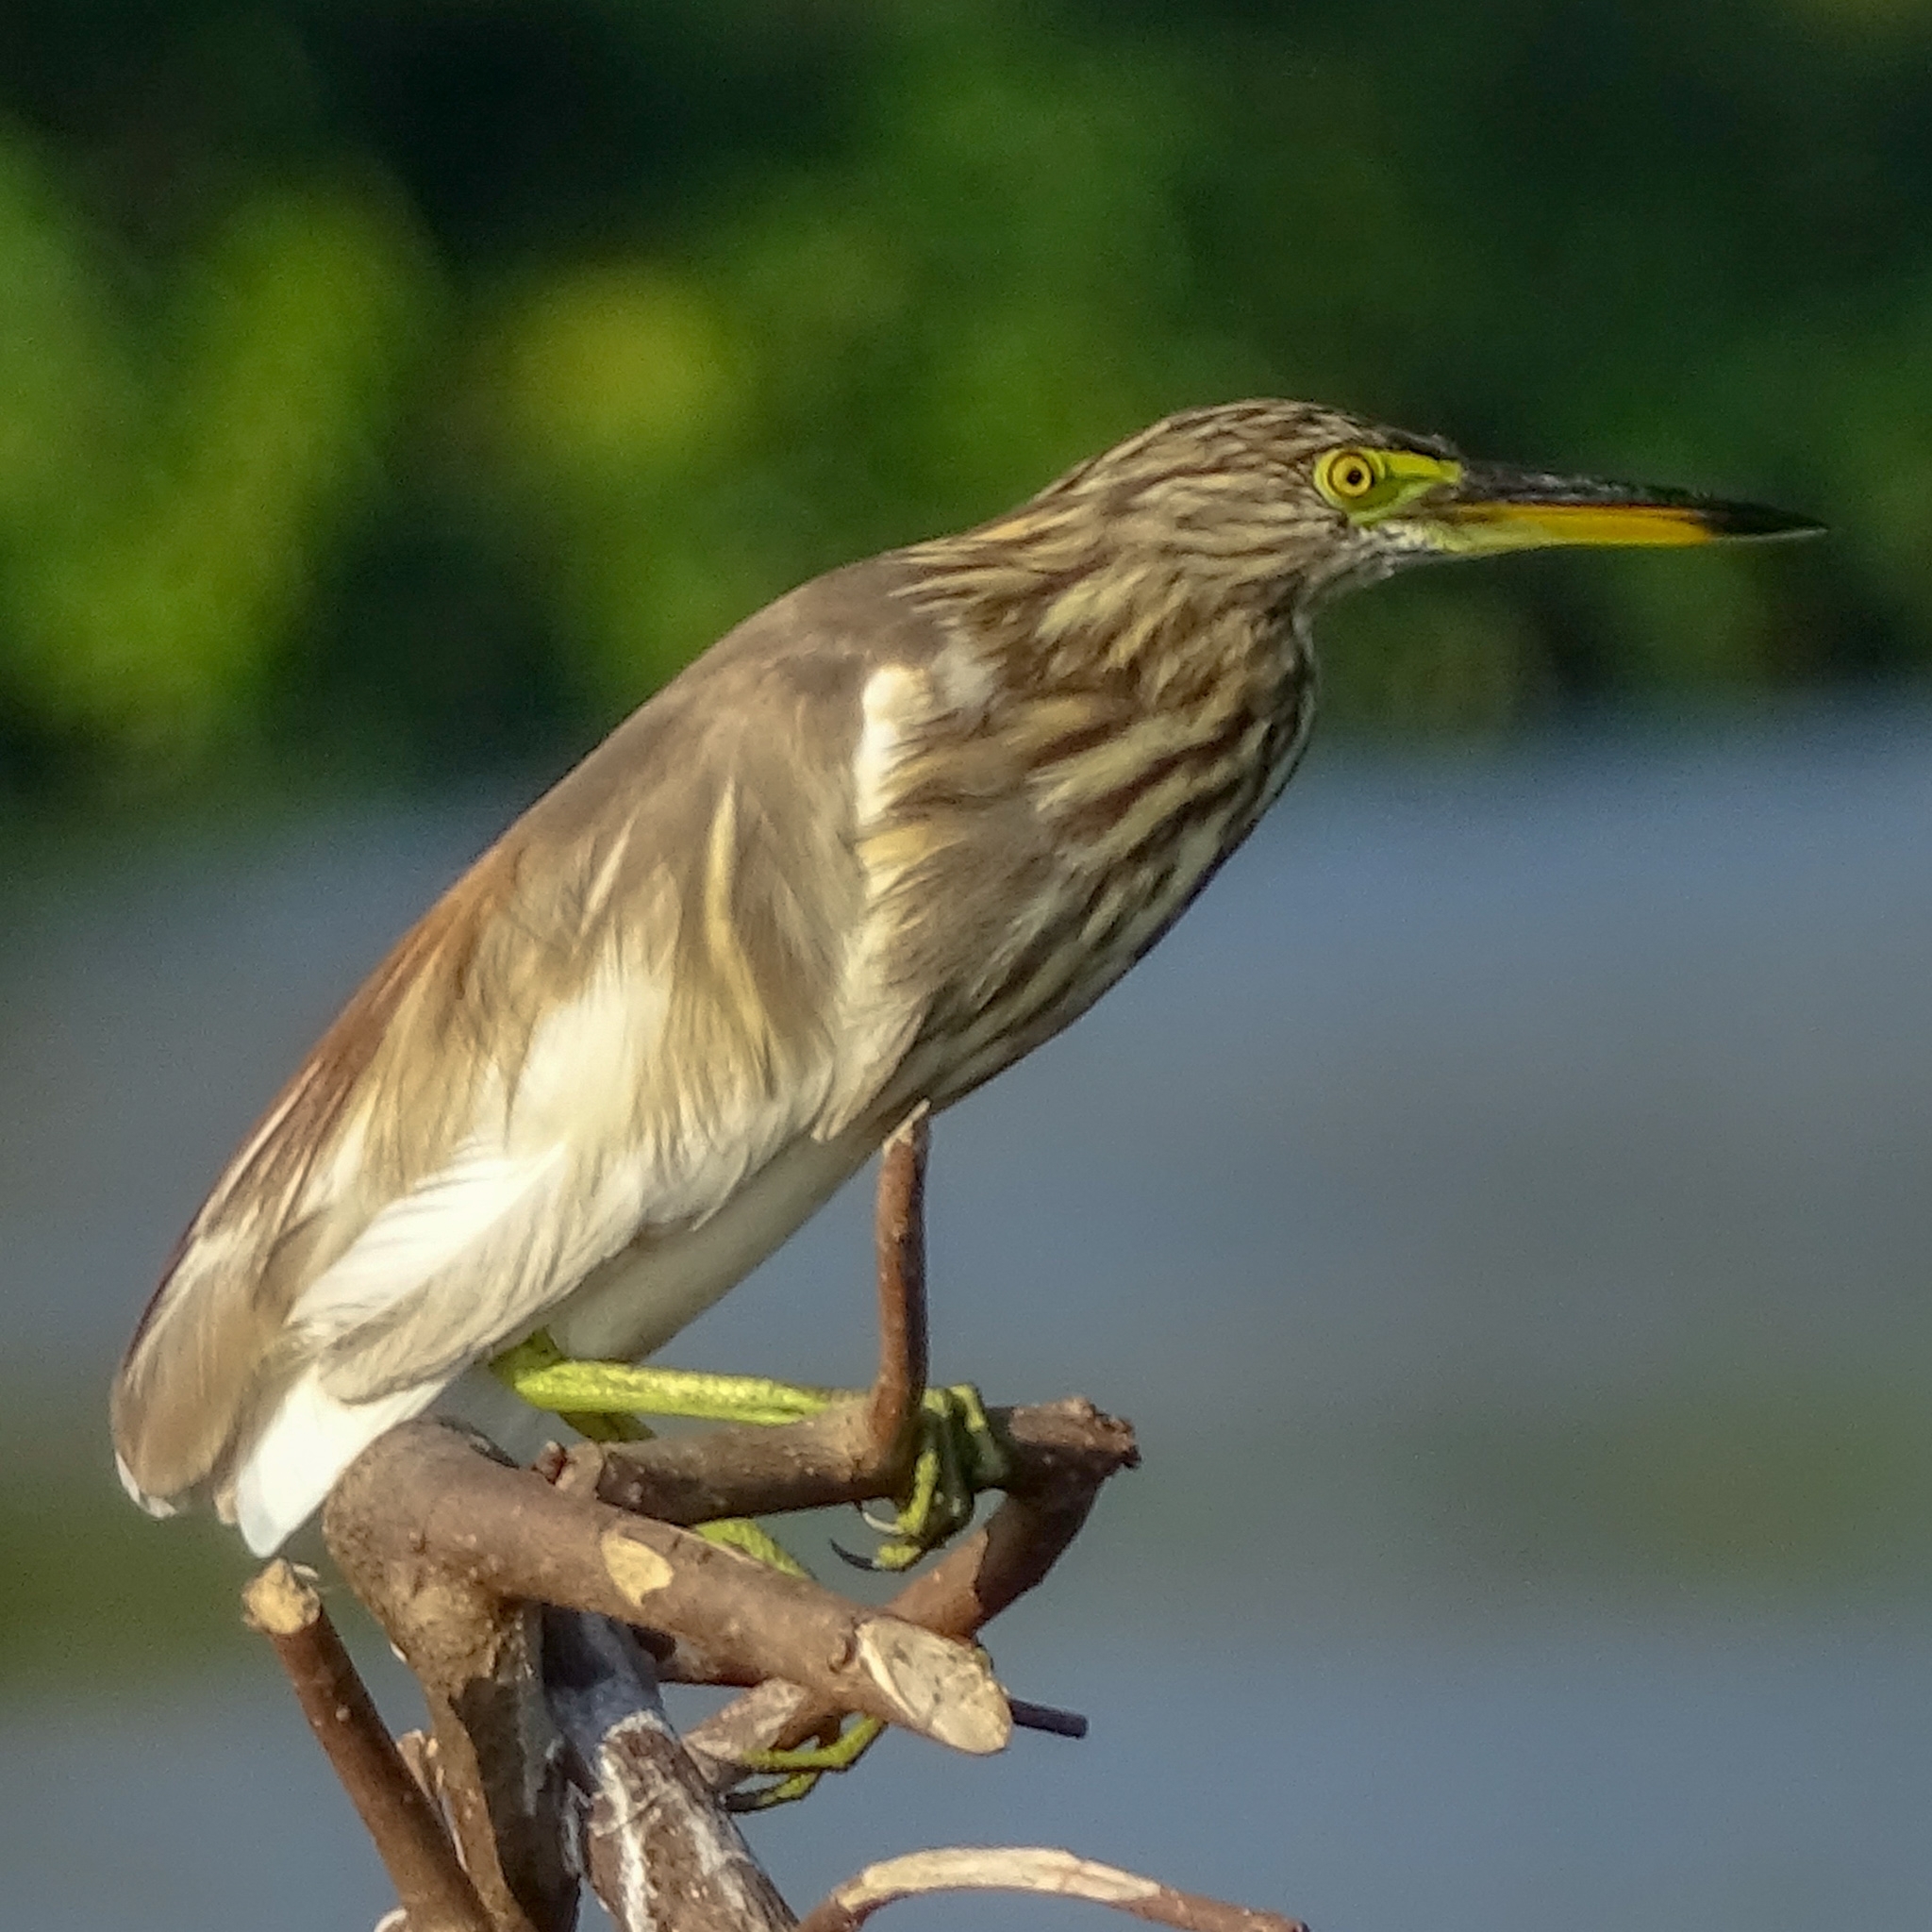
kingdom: Animalia
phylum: Chordata
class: Aves
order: Pelecaniformes
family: Ardeidae
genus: Ardeola
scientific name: Ardeola grayii
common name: Indian pond heron
